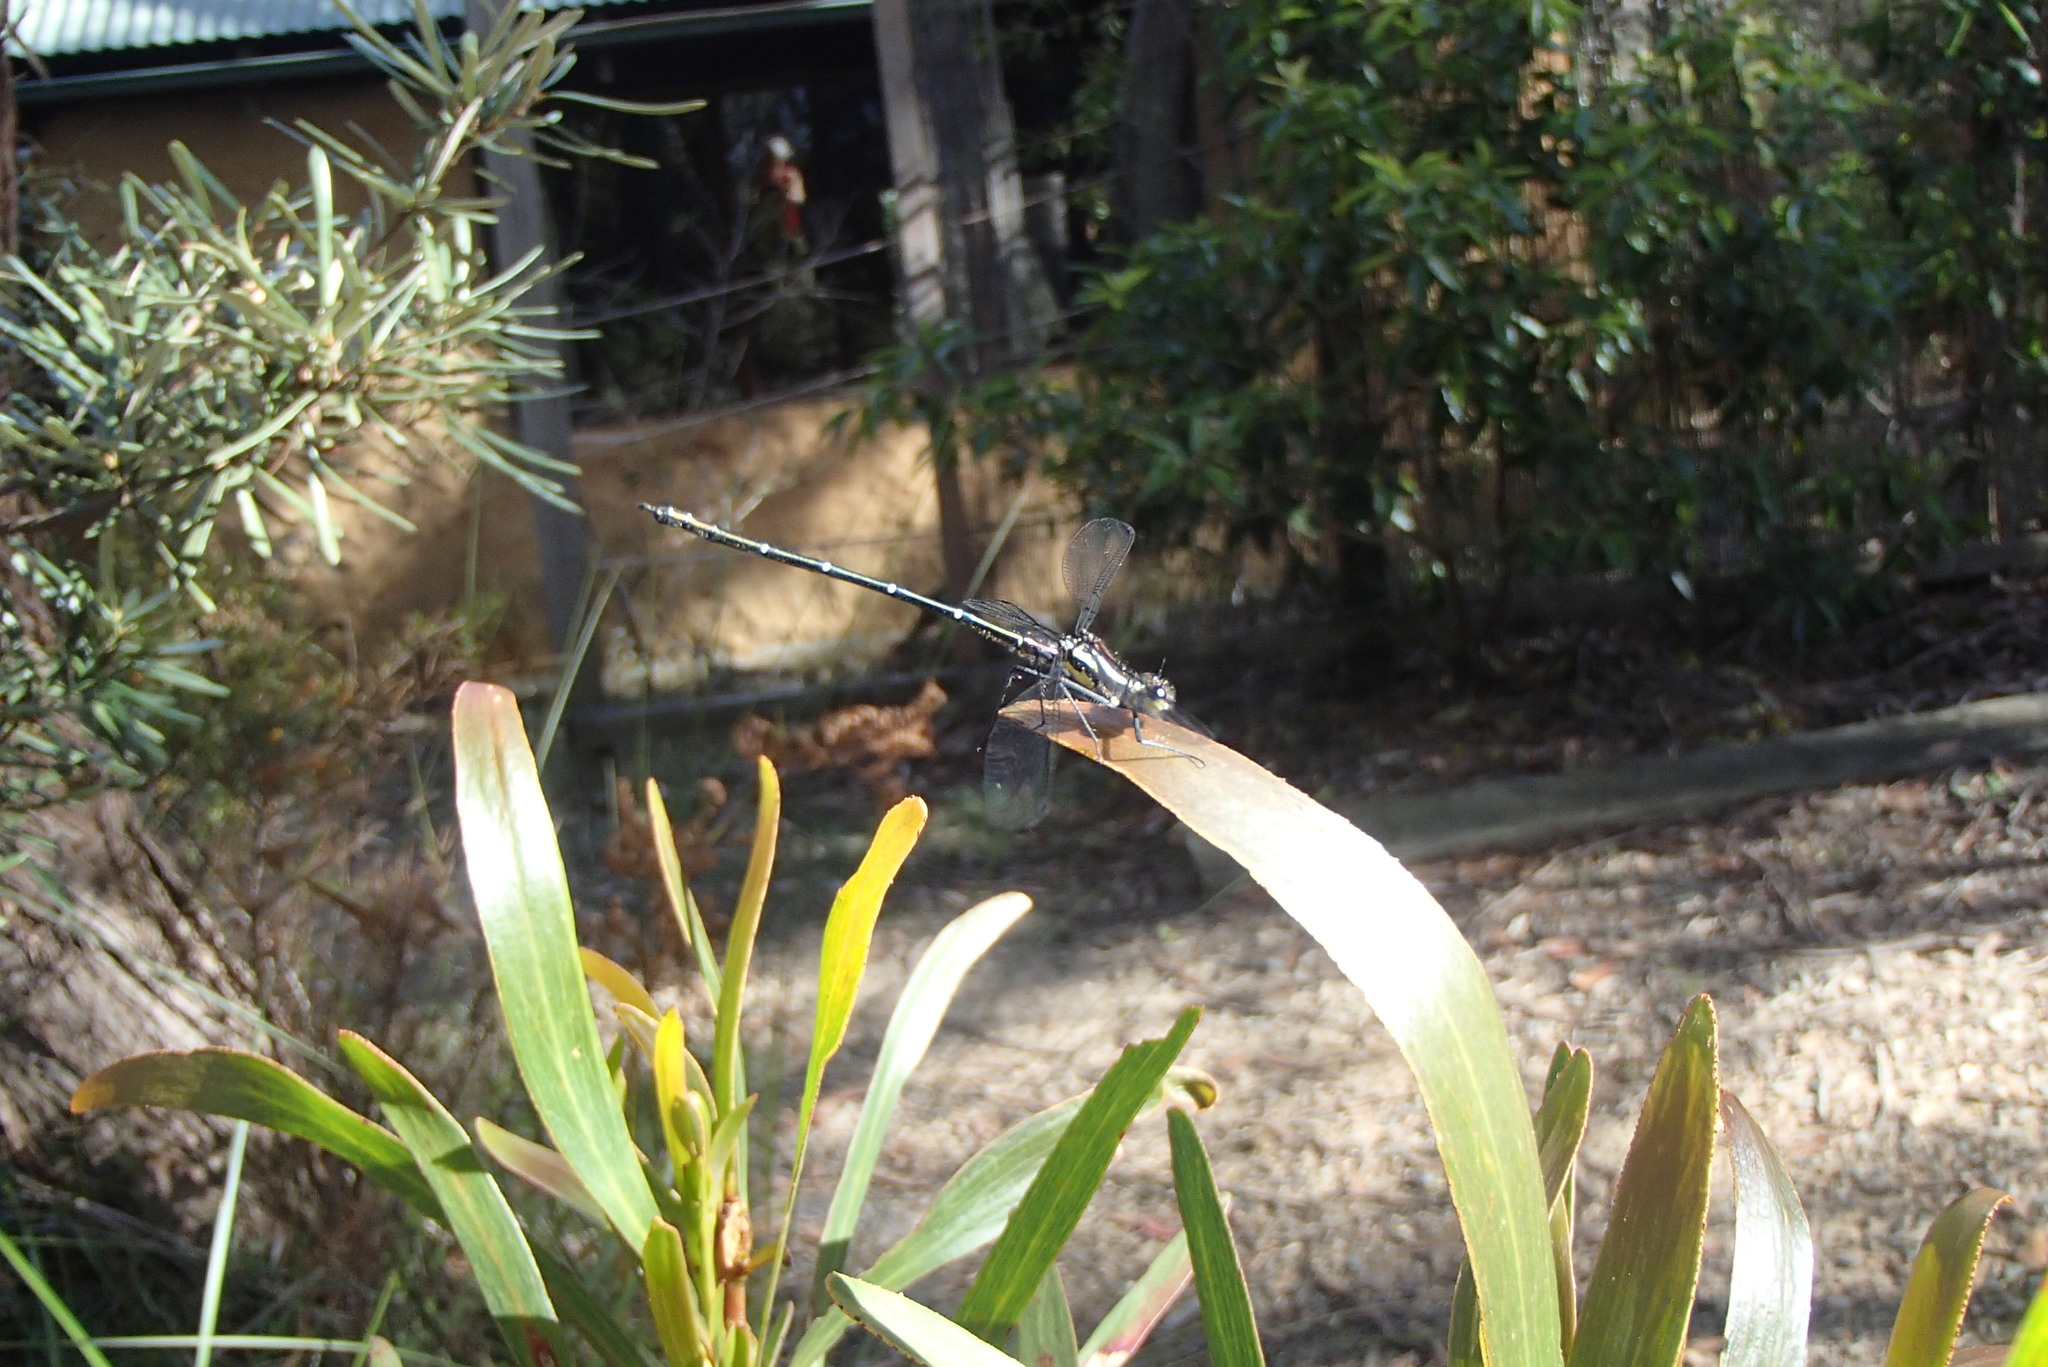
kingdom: Animalia
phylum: Arthropoda
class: Insecta
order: Odonata
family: Argiolestidae
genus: Austroargiolestes
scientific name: Austroargiolestes isabellae
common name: Sydney flatwing
